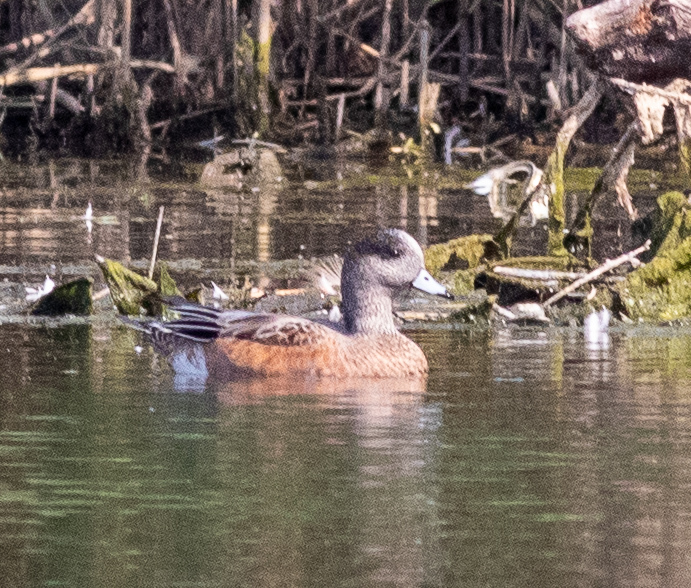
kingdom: Animalia
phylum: Chordata
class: Aves
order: Anseriformes
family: Anatidae
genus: Mareca
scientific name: Mareca americana
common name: American wigeon
